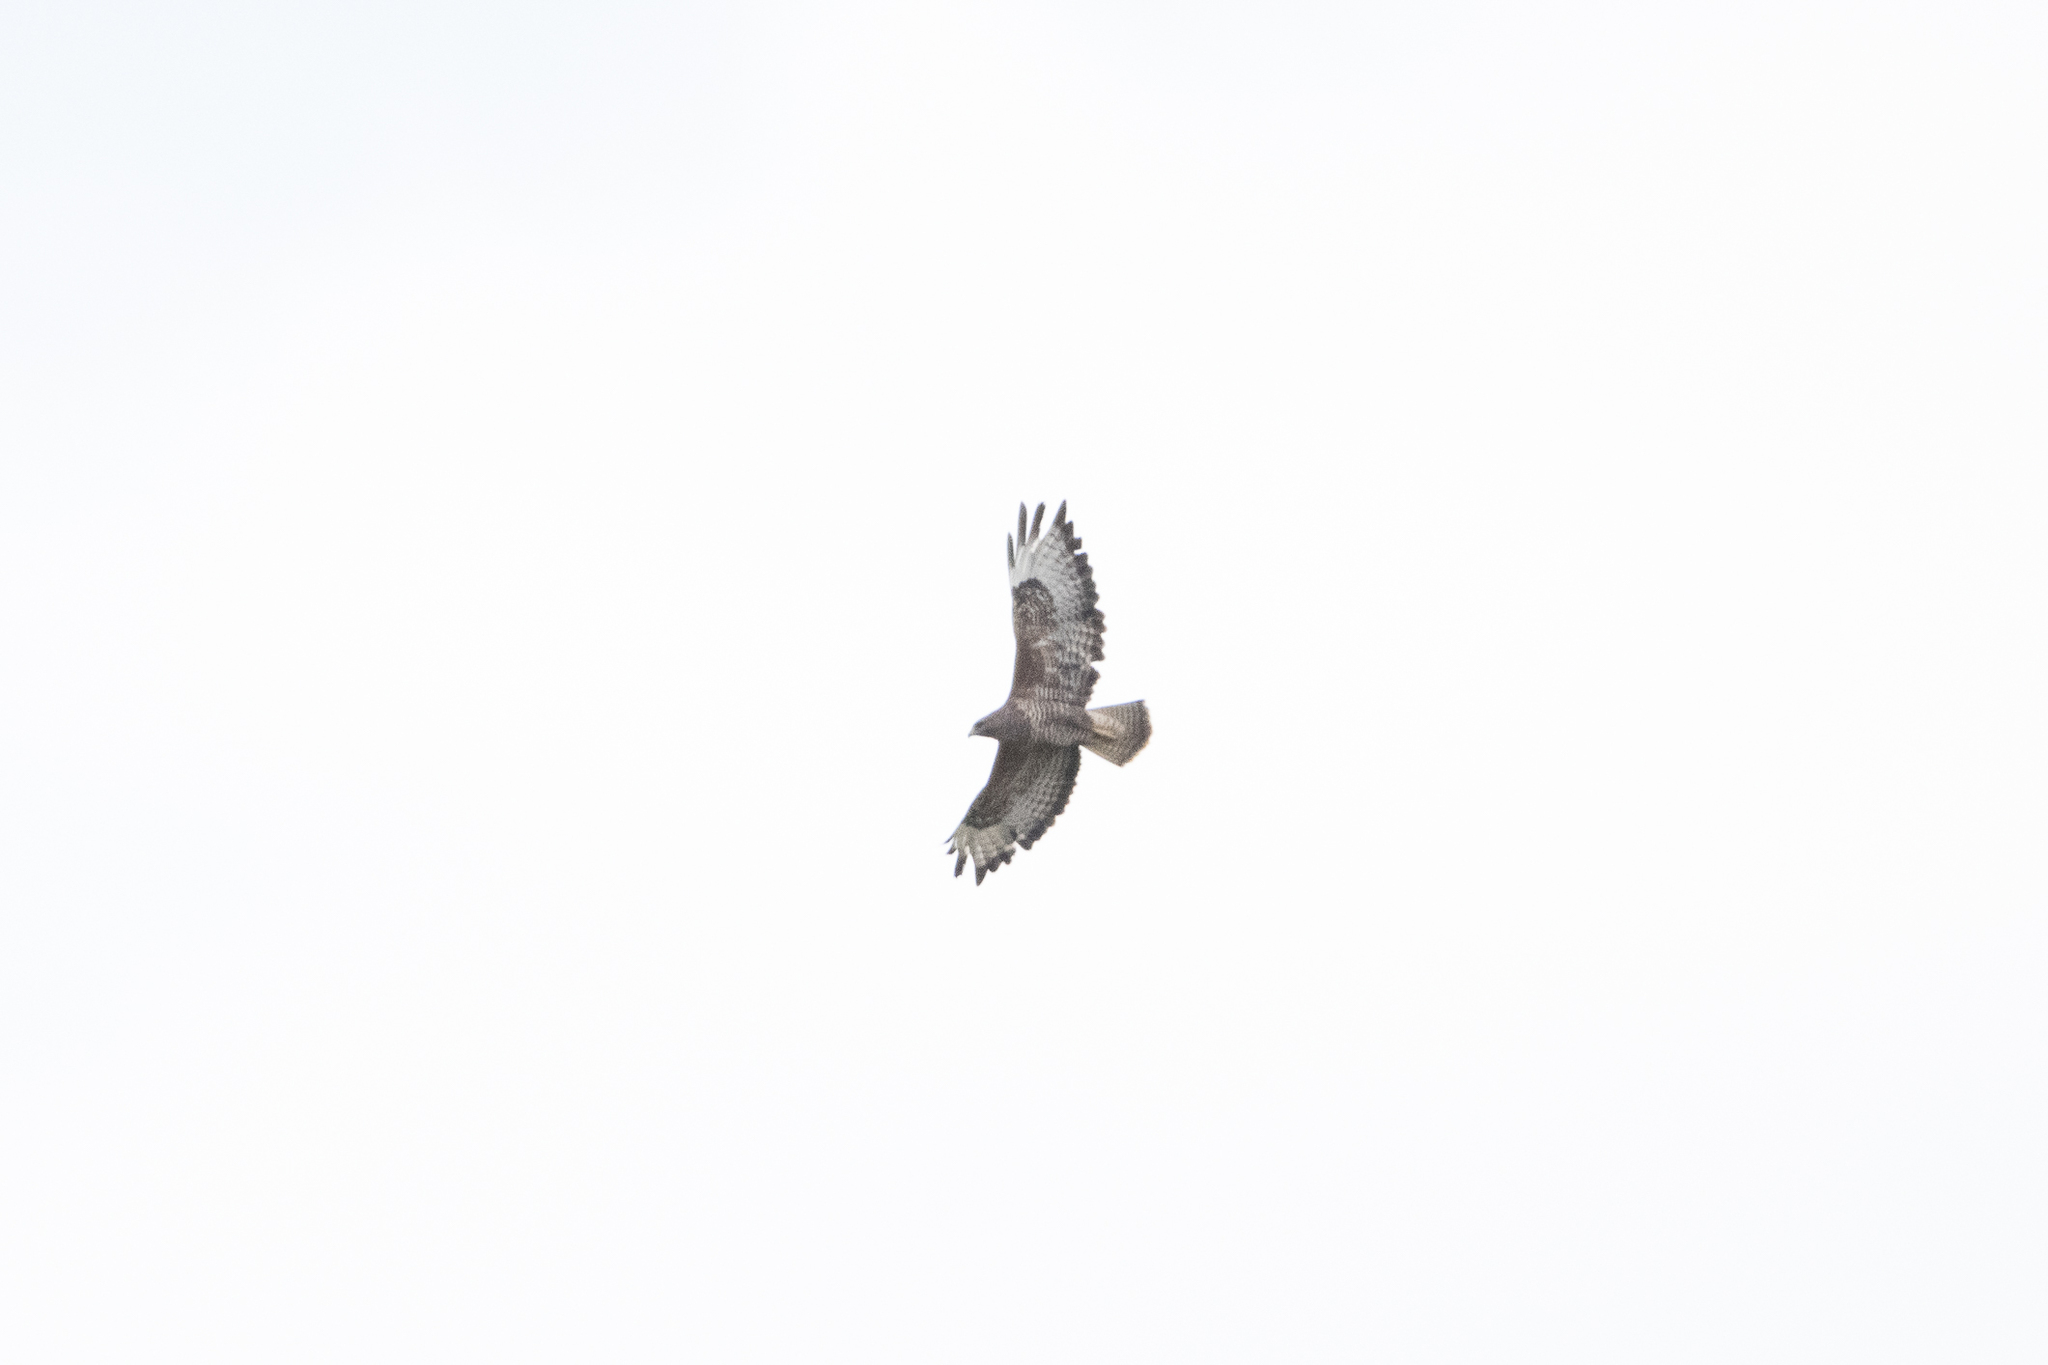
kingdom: Animalia
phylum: Chordata
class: Aves
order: Accipitriformes
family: Accipitridae
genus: Buteo
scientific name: Buteo buteo
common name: Common buzzard
